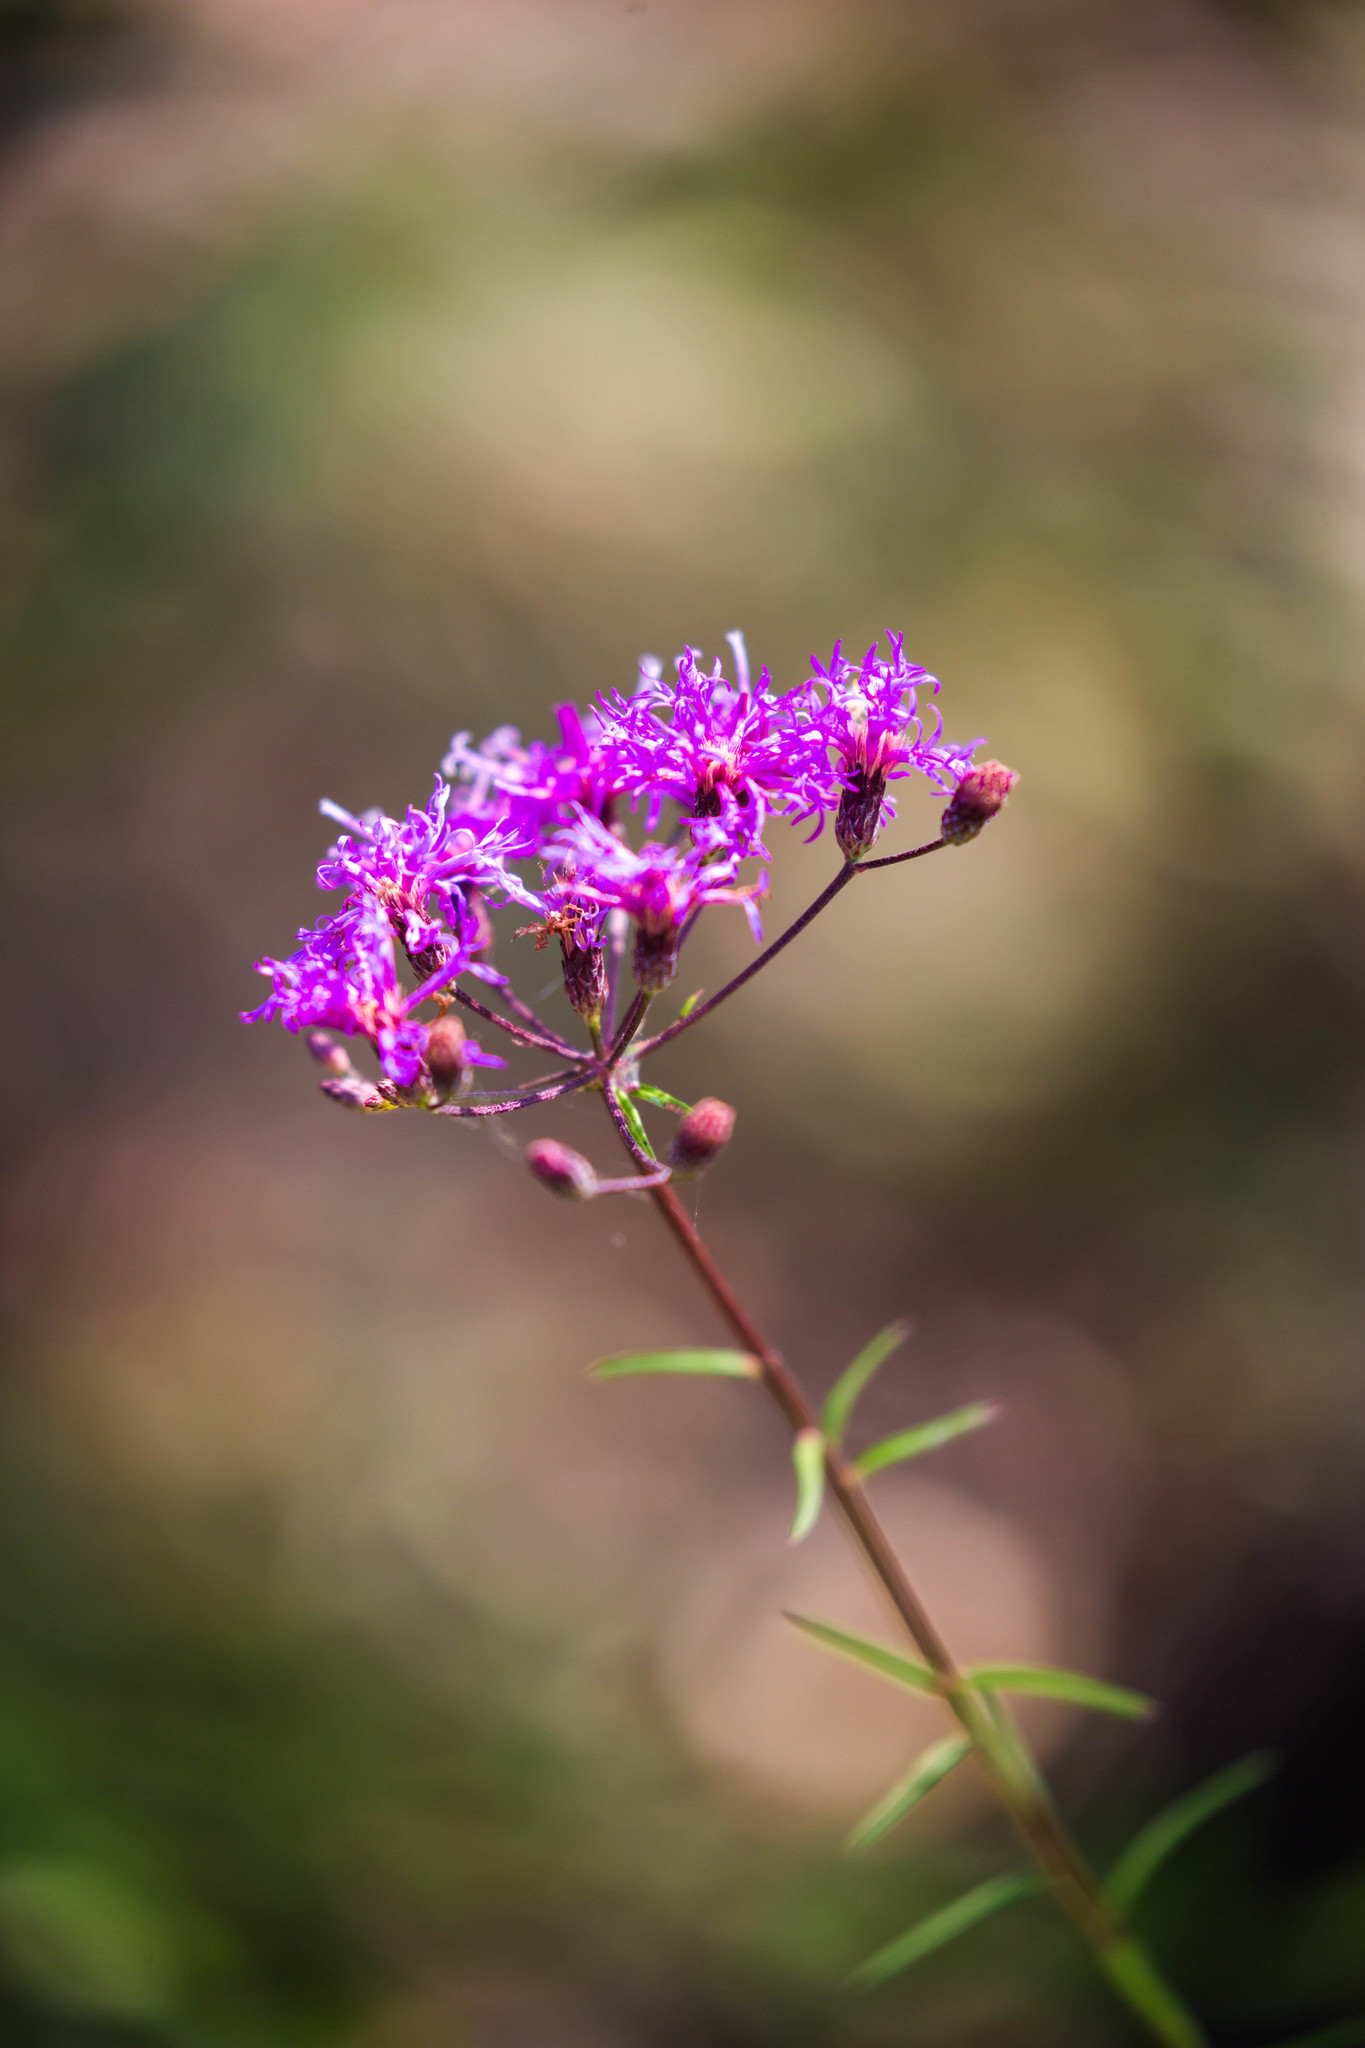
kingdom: Plantae
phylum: Tracheophyta
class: Magnoliopsida
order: Asterales
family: Asteraceae
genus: Vernonia
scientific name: Vernonia angustifolia
